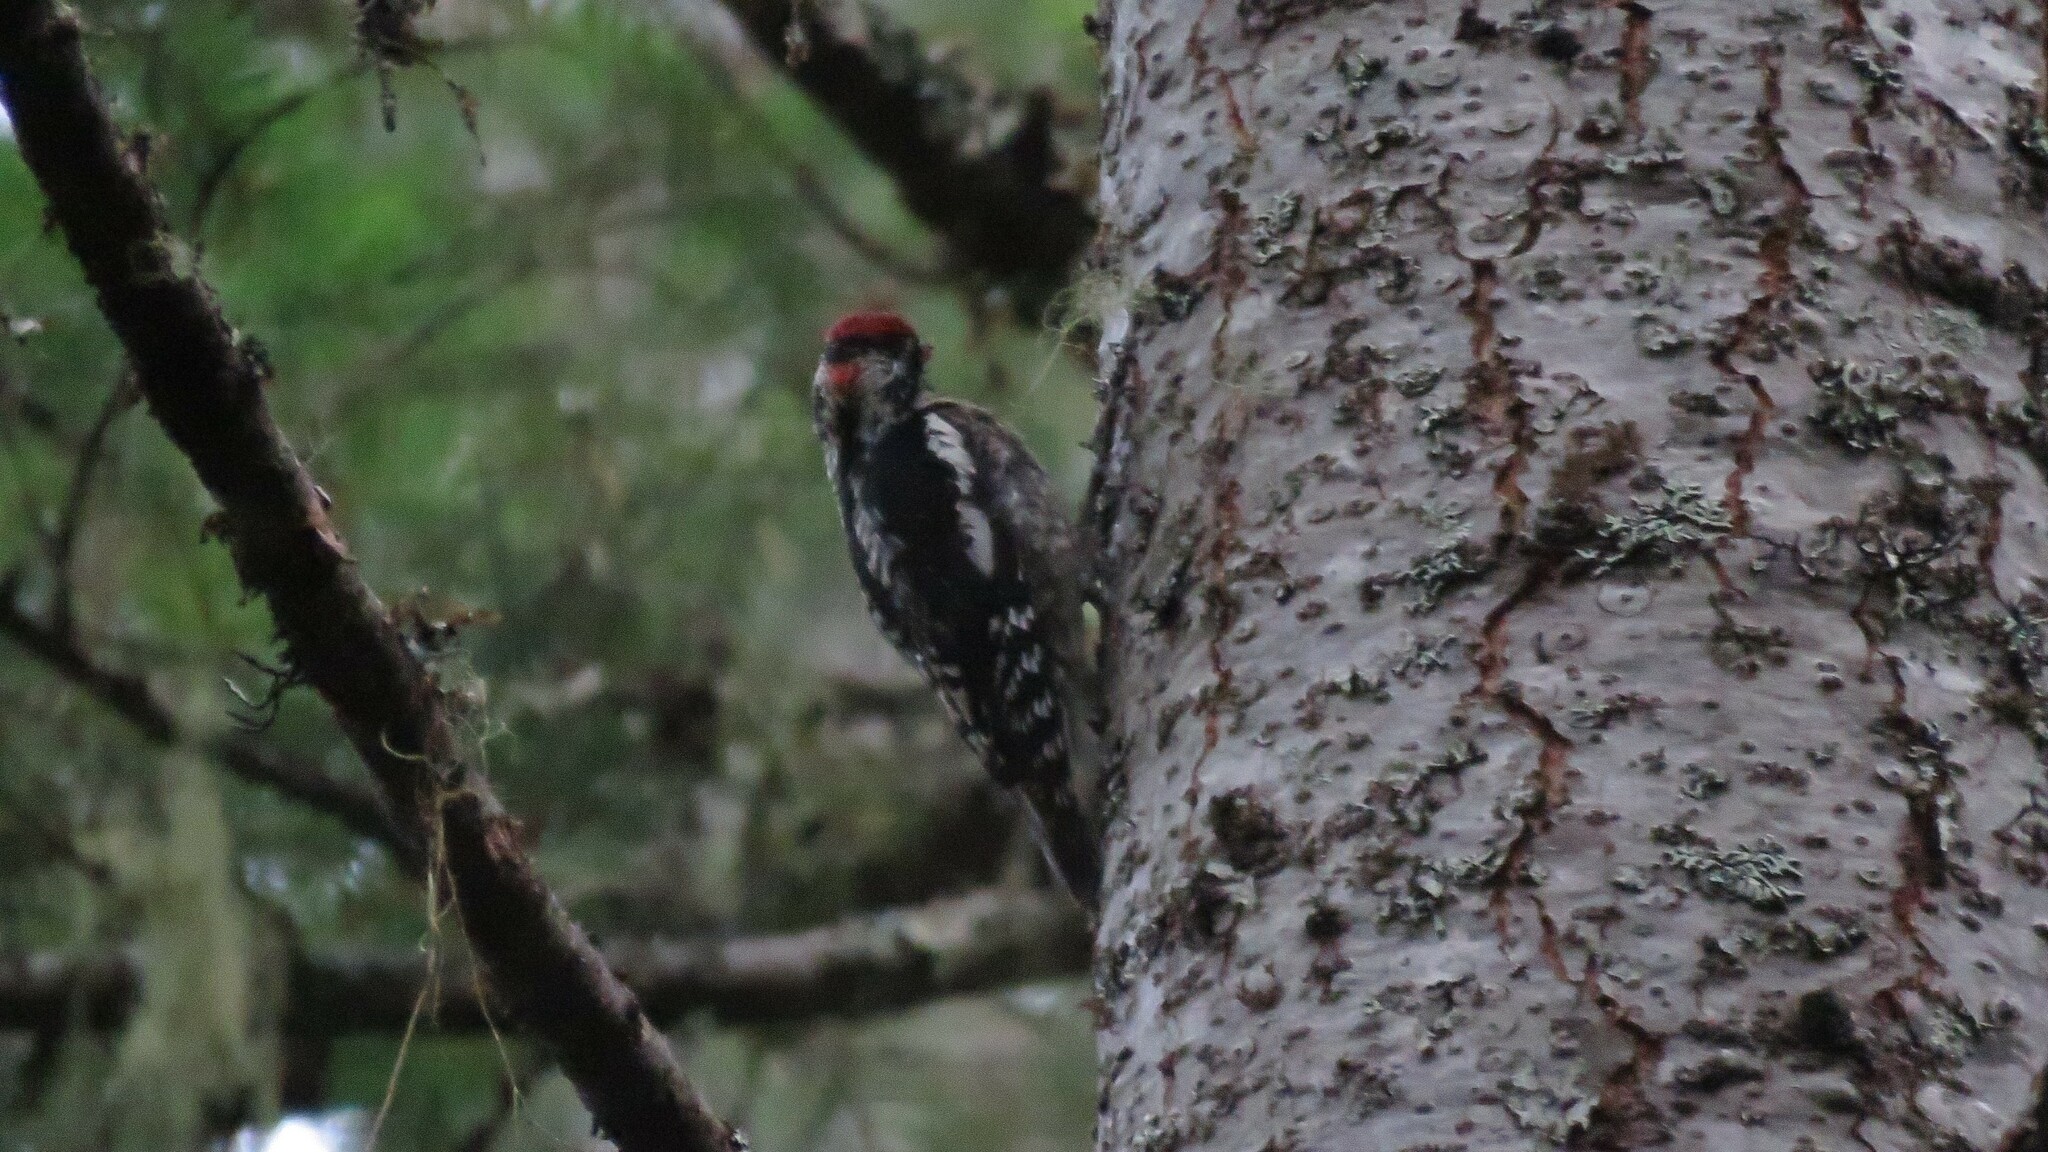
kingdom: Animalia
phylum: Chordata
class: Aves
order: Piciformes
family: Picidae
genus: Sphyrapicus
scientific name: Sphyrapicus nuchalis
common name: Red-naped sapsucker
